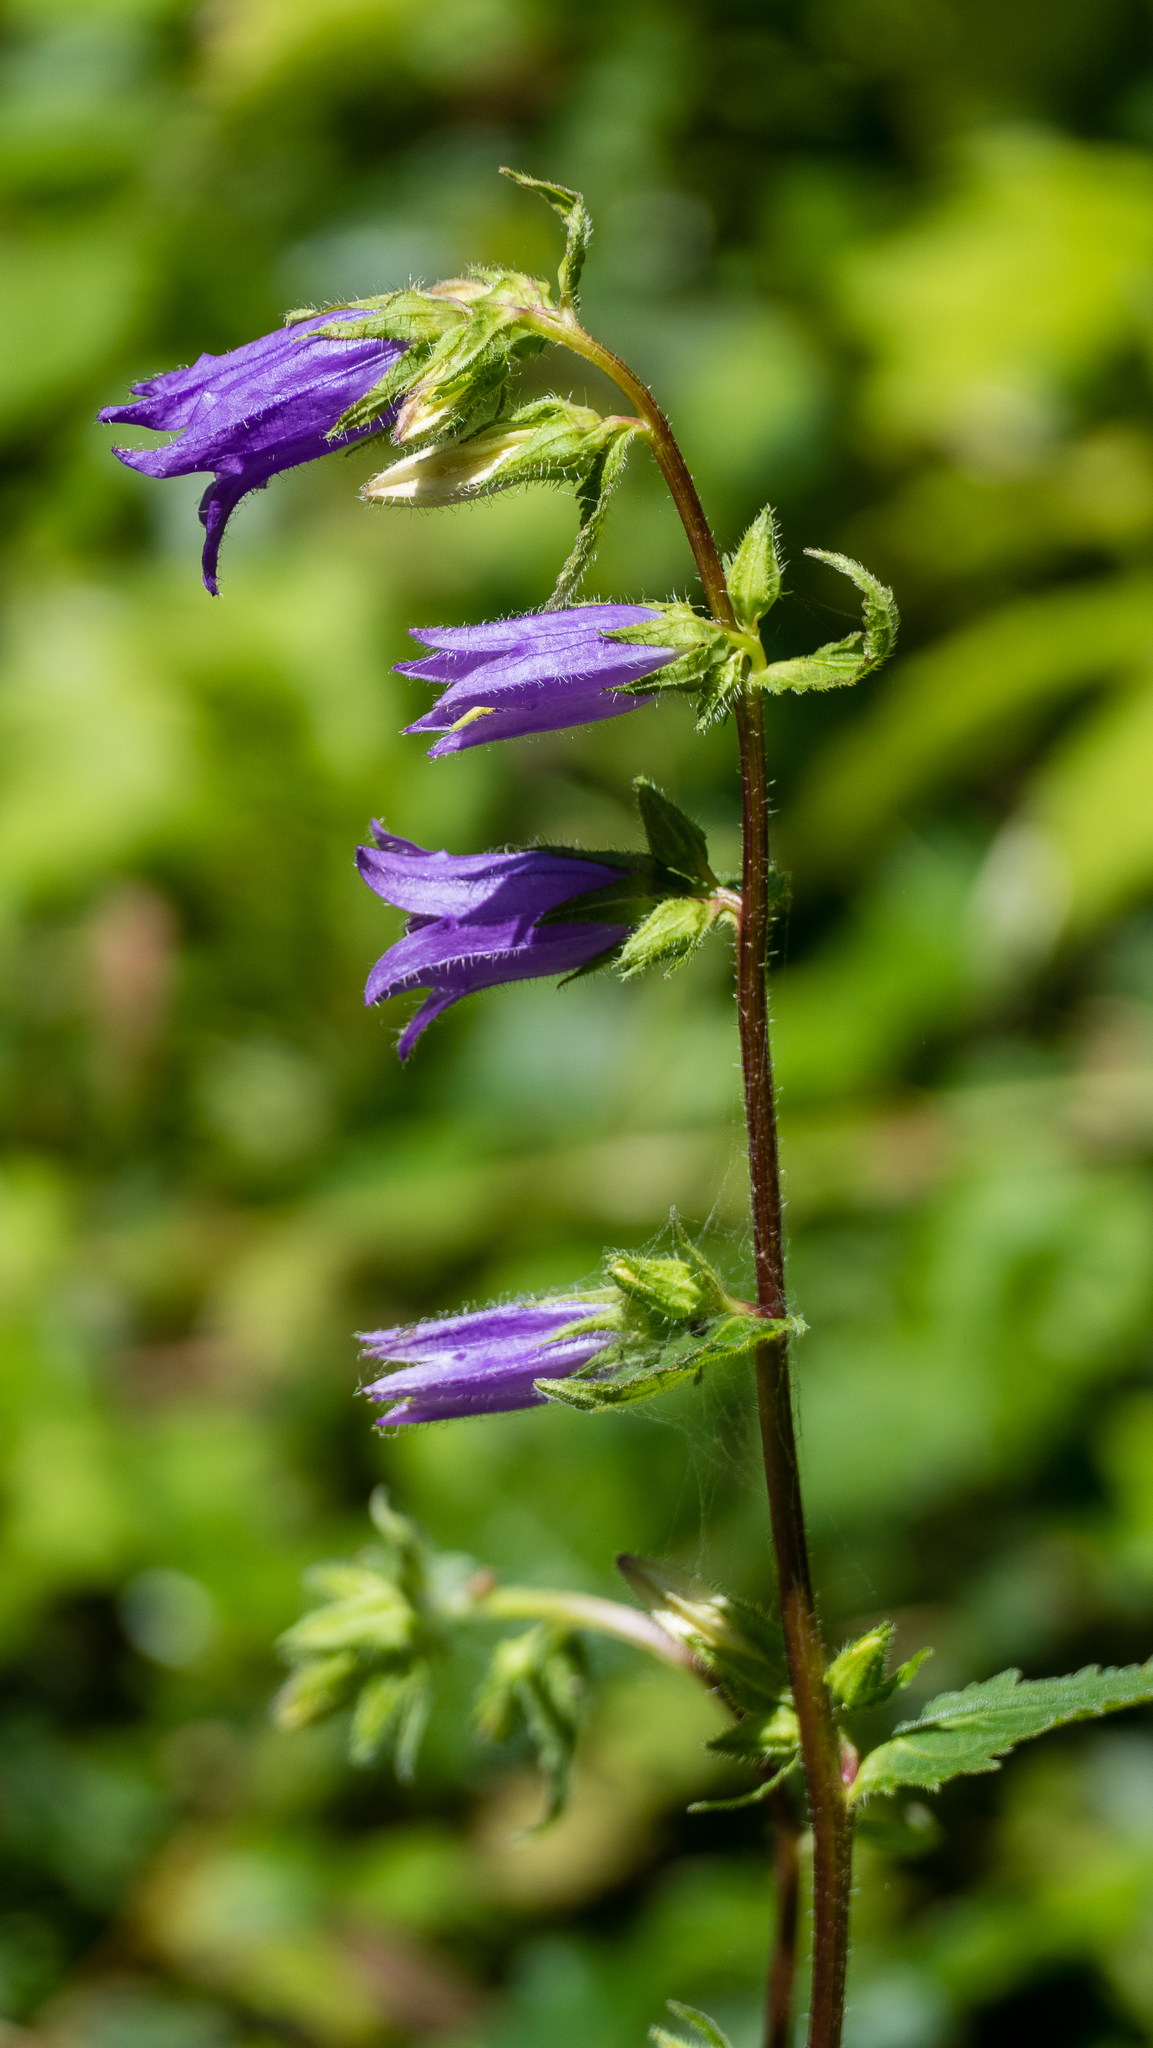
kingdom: Plantae
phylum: Tracheophyta
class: Magnoliopsida
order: Asterales
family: Campanulaceae
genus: Campanula
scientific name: Campanula trachelium
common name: Nettle-leaved bellflower
